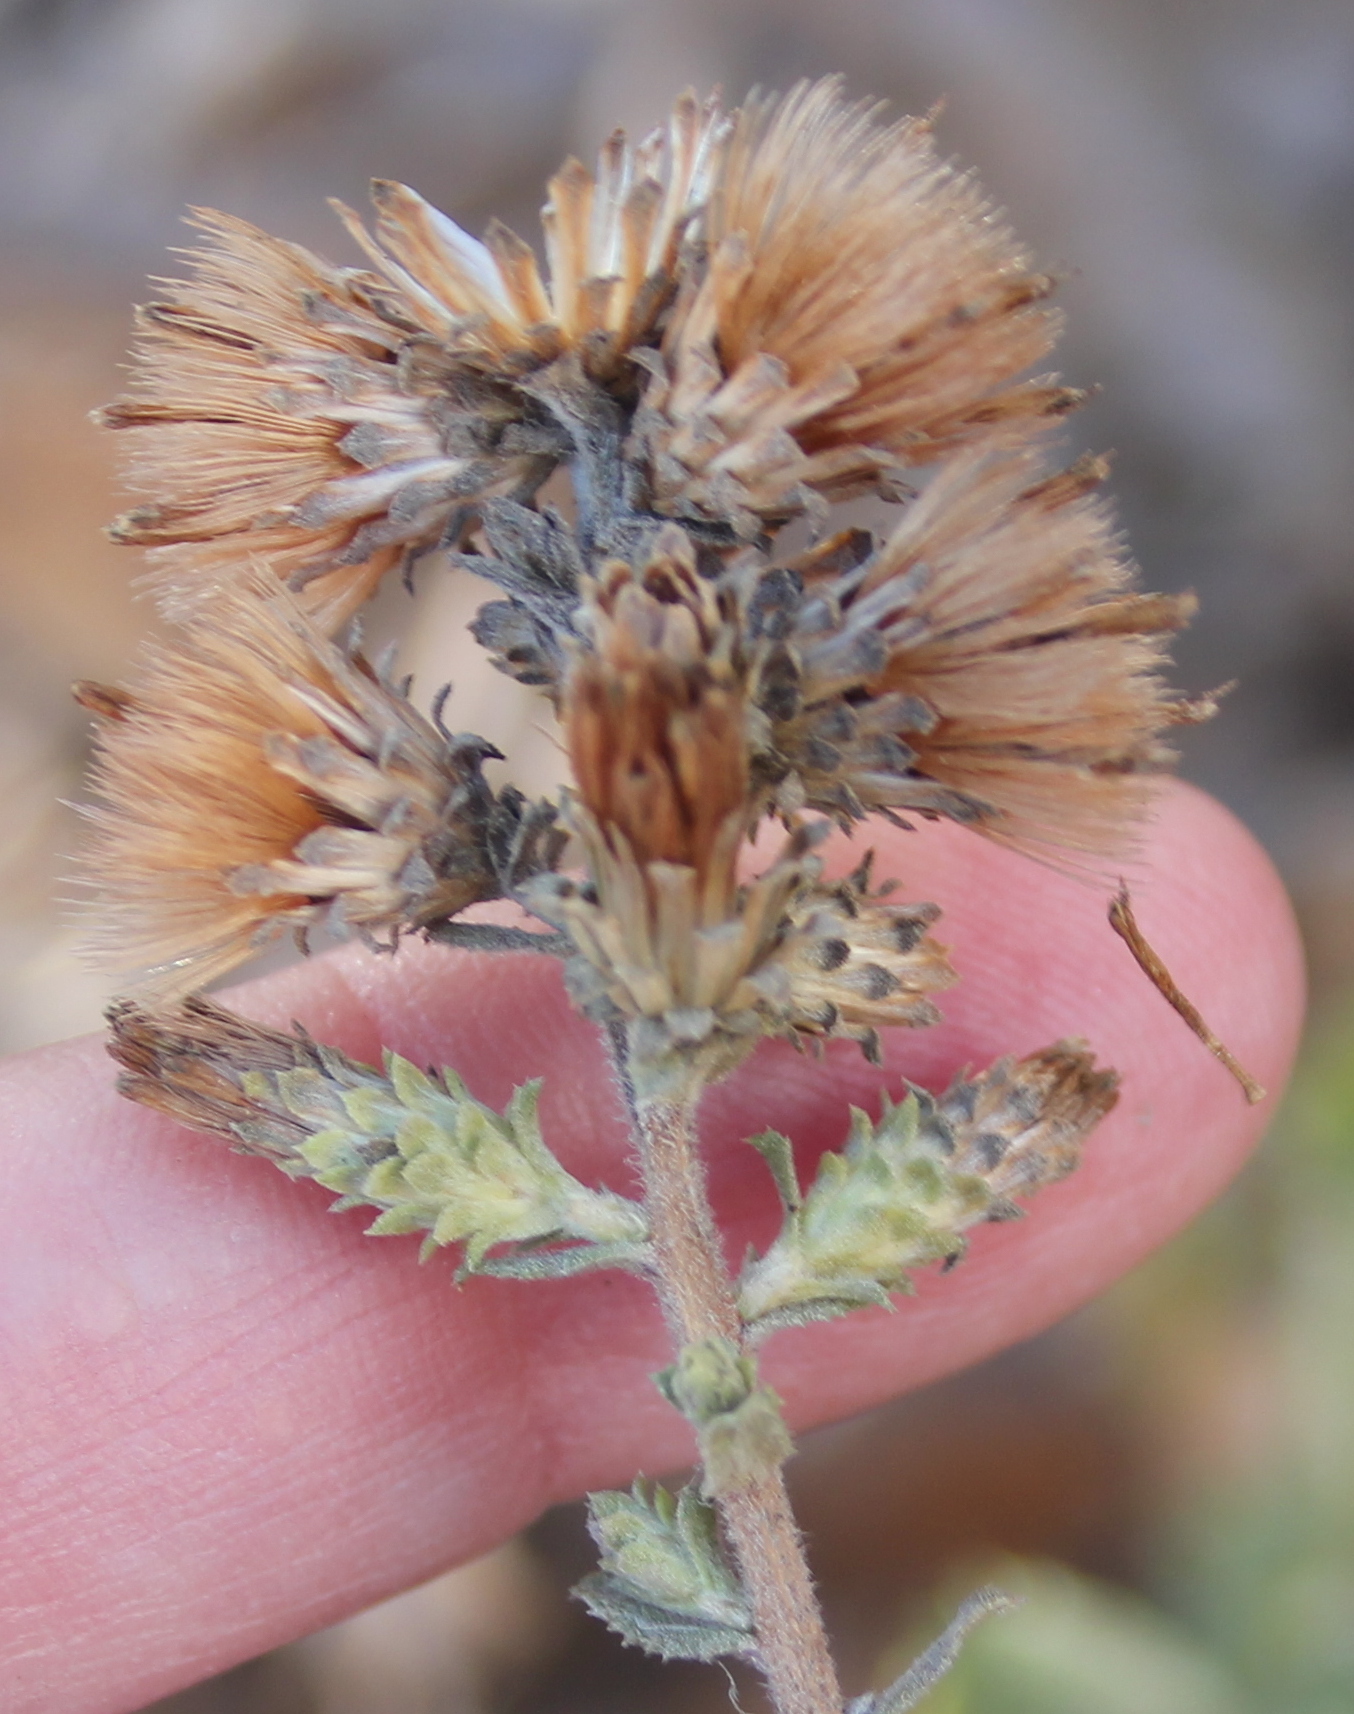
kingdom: Plantae
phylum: Tracheophyta
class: Magnoliopsida
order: Asterales
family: Asteraceae
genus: Hazardia
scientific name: Hazardia squarrosa
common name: Saw-tooth goldenbush
